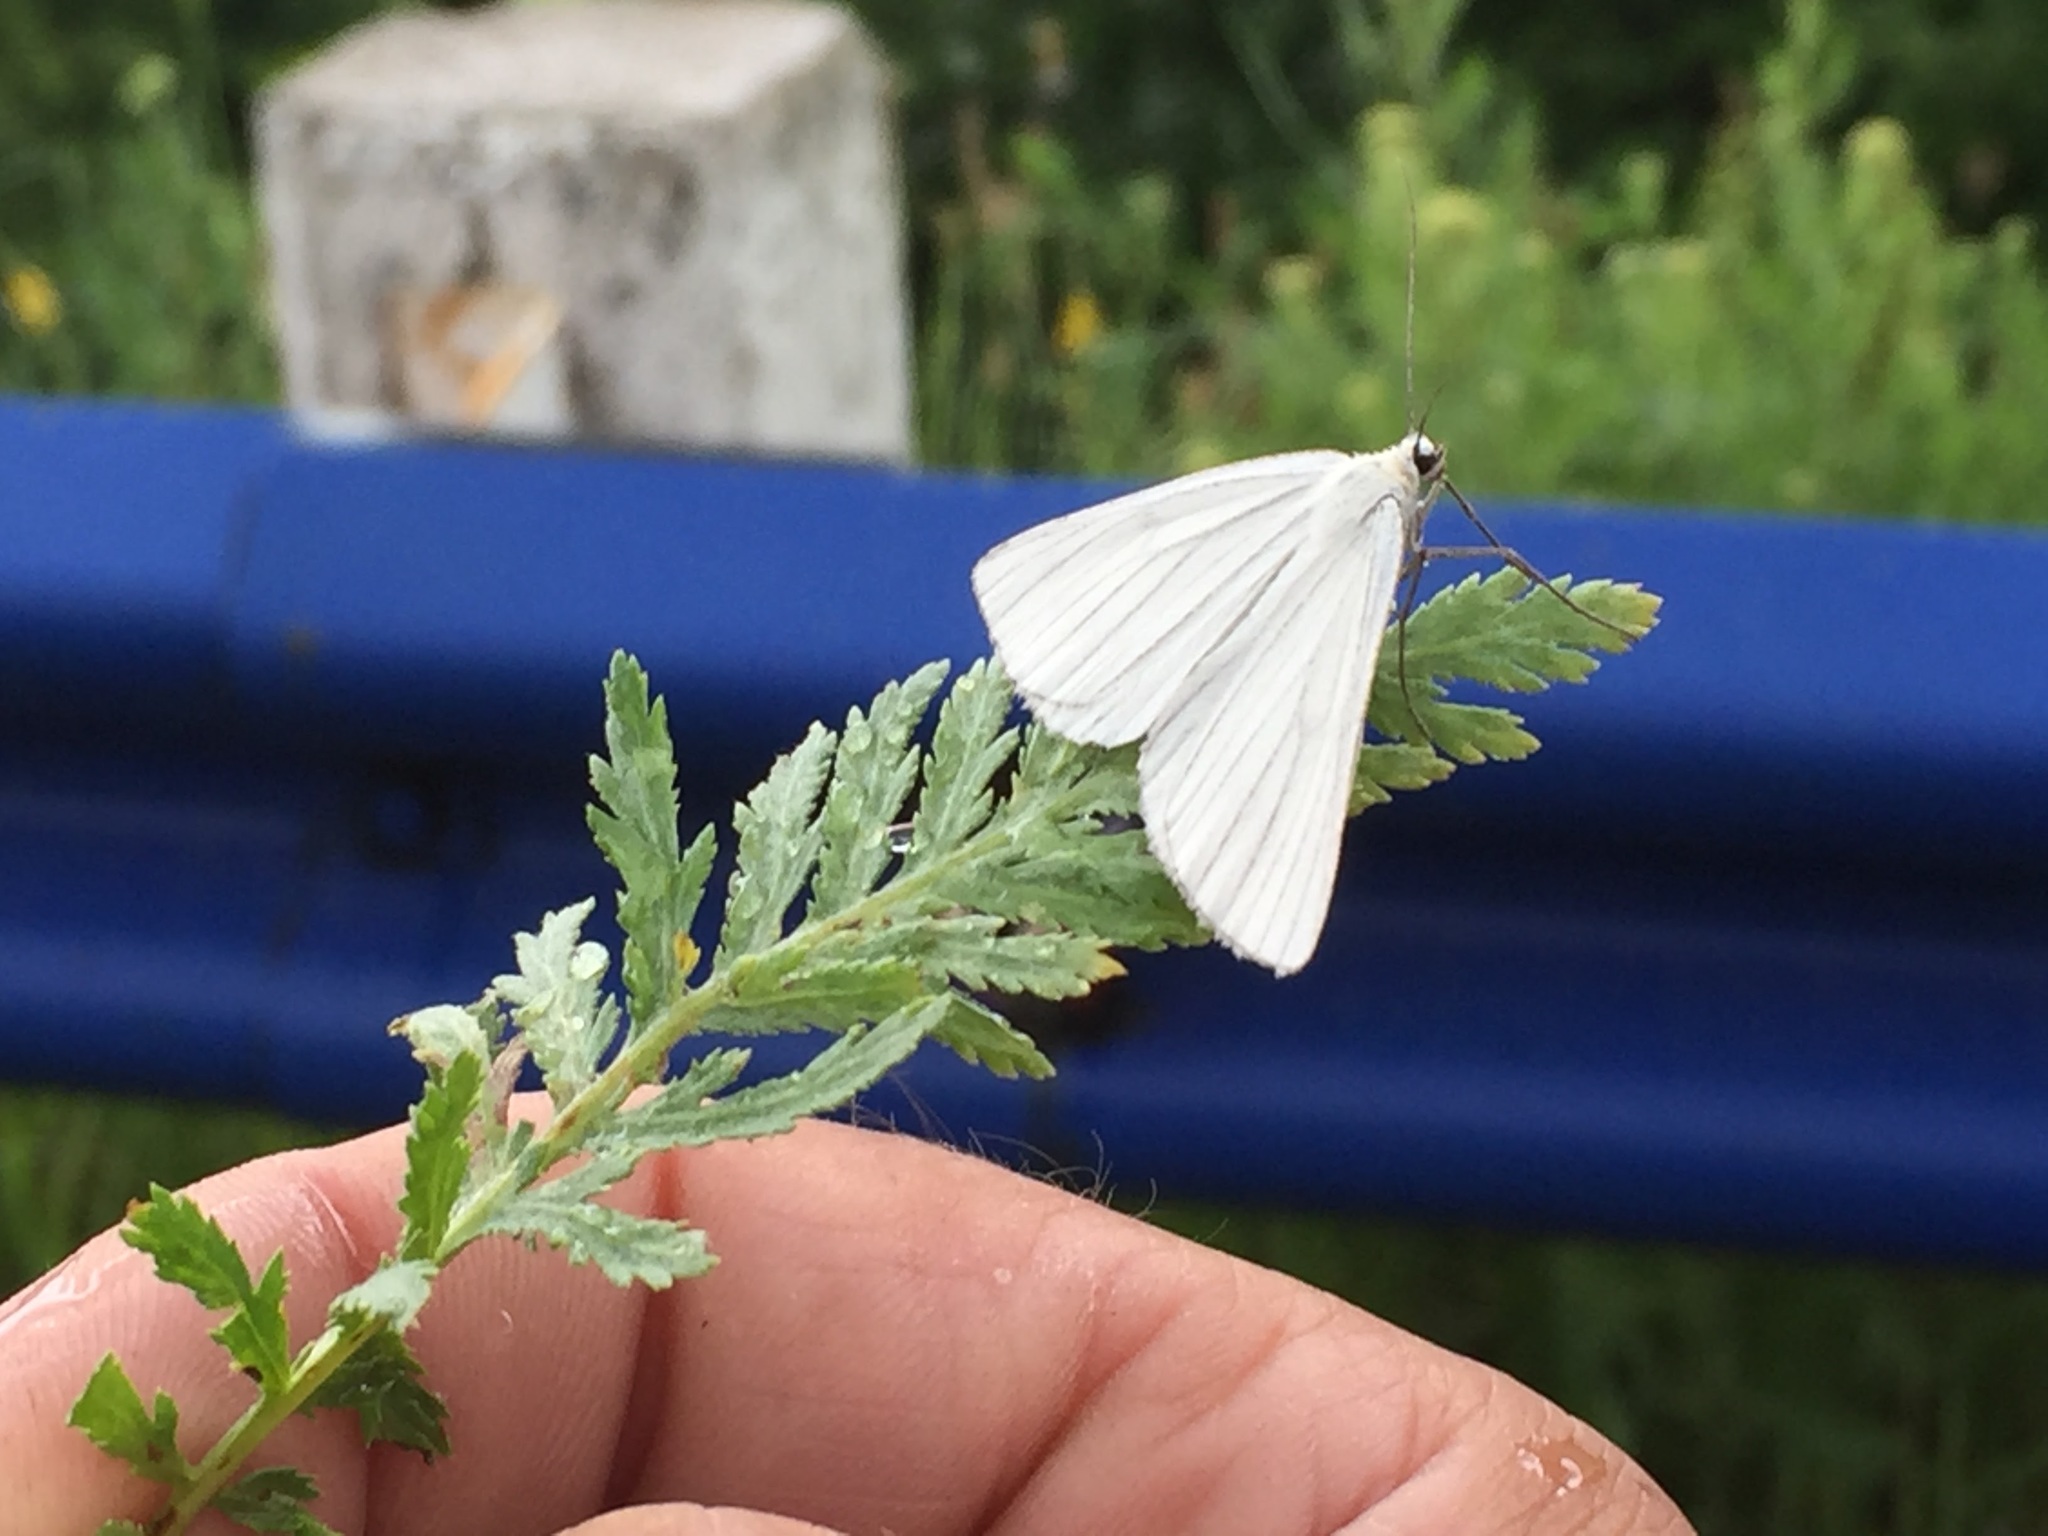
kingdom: Animalia
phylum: Arthropoda
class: Insecta
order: Lepidoptera
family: Geometridae
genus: Siona
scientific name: Siona lineata
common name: Black-veined moth
